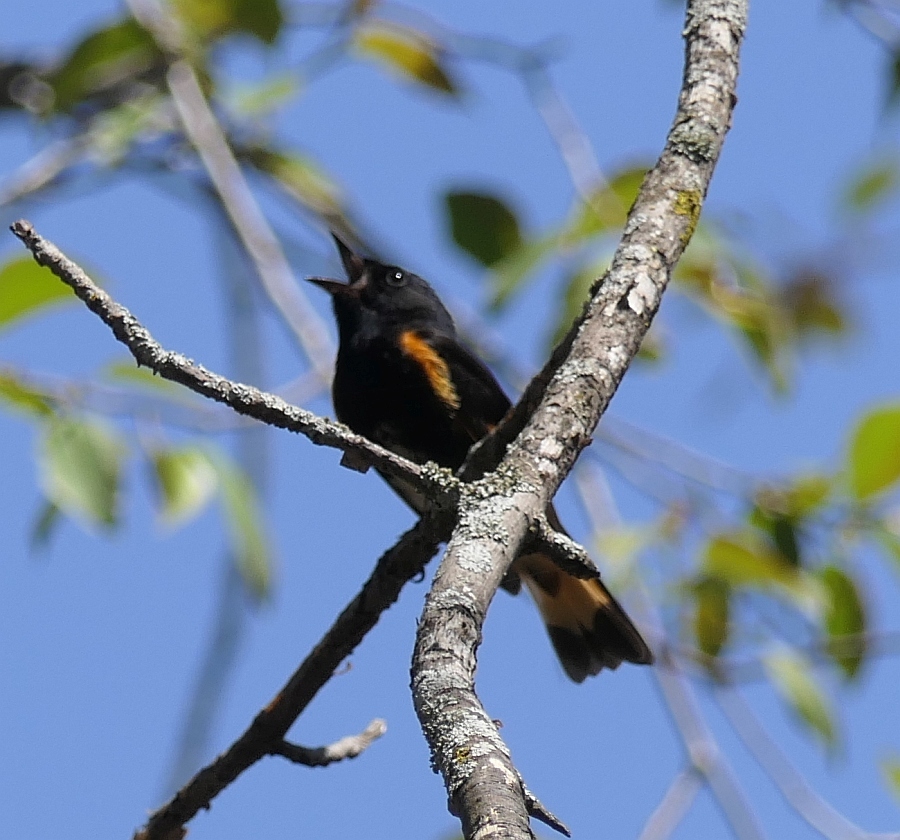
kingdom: Animalia
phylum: Chordata
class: Aves
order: Passeriformes
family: Parulidae
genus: Setophaga
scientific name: Setophaga ruticilla
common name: American redstart
